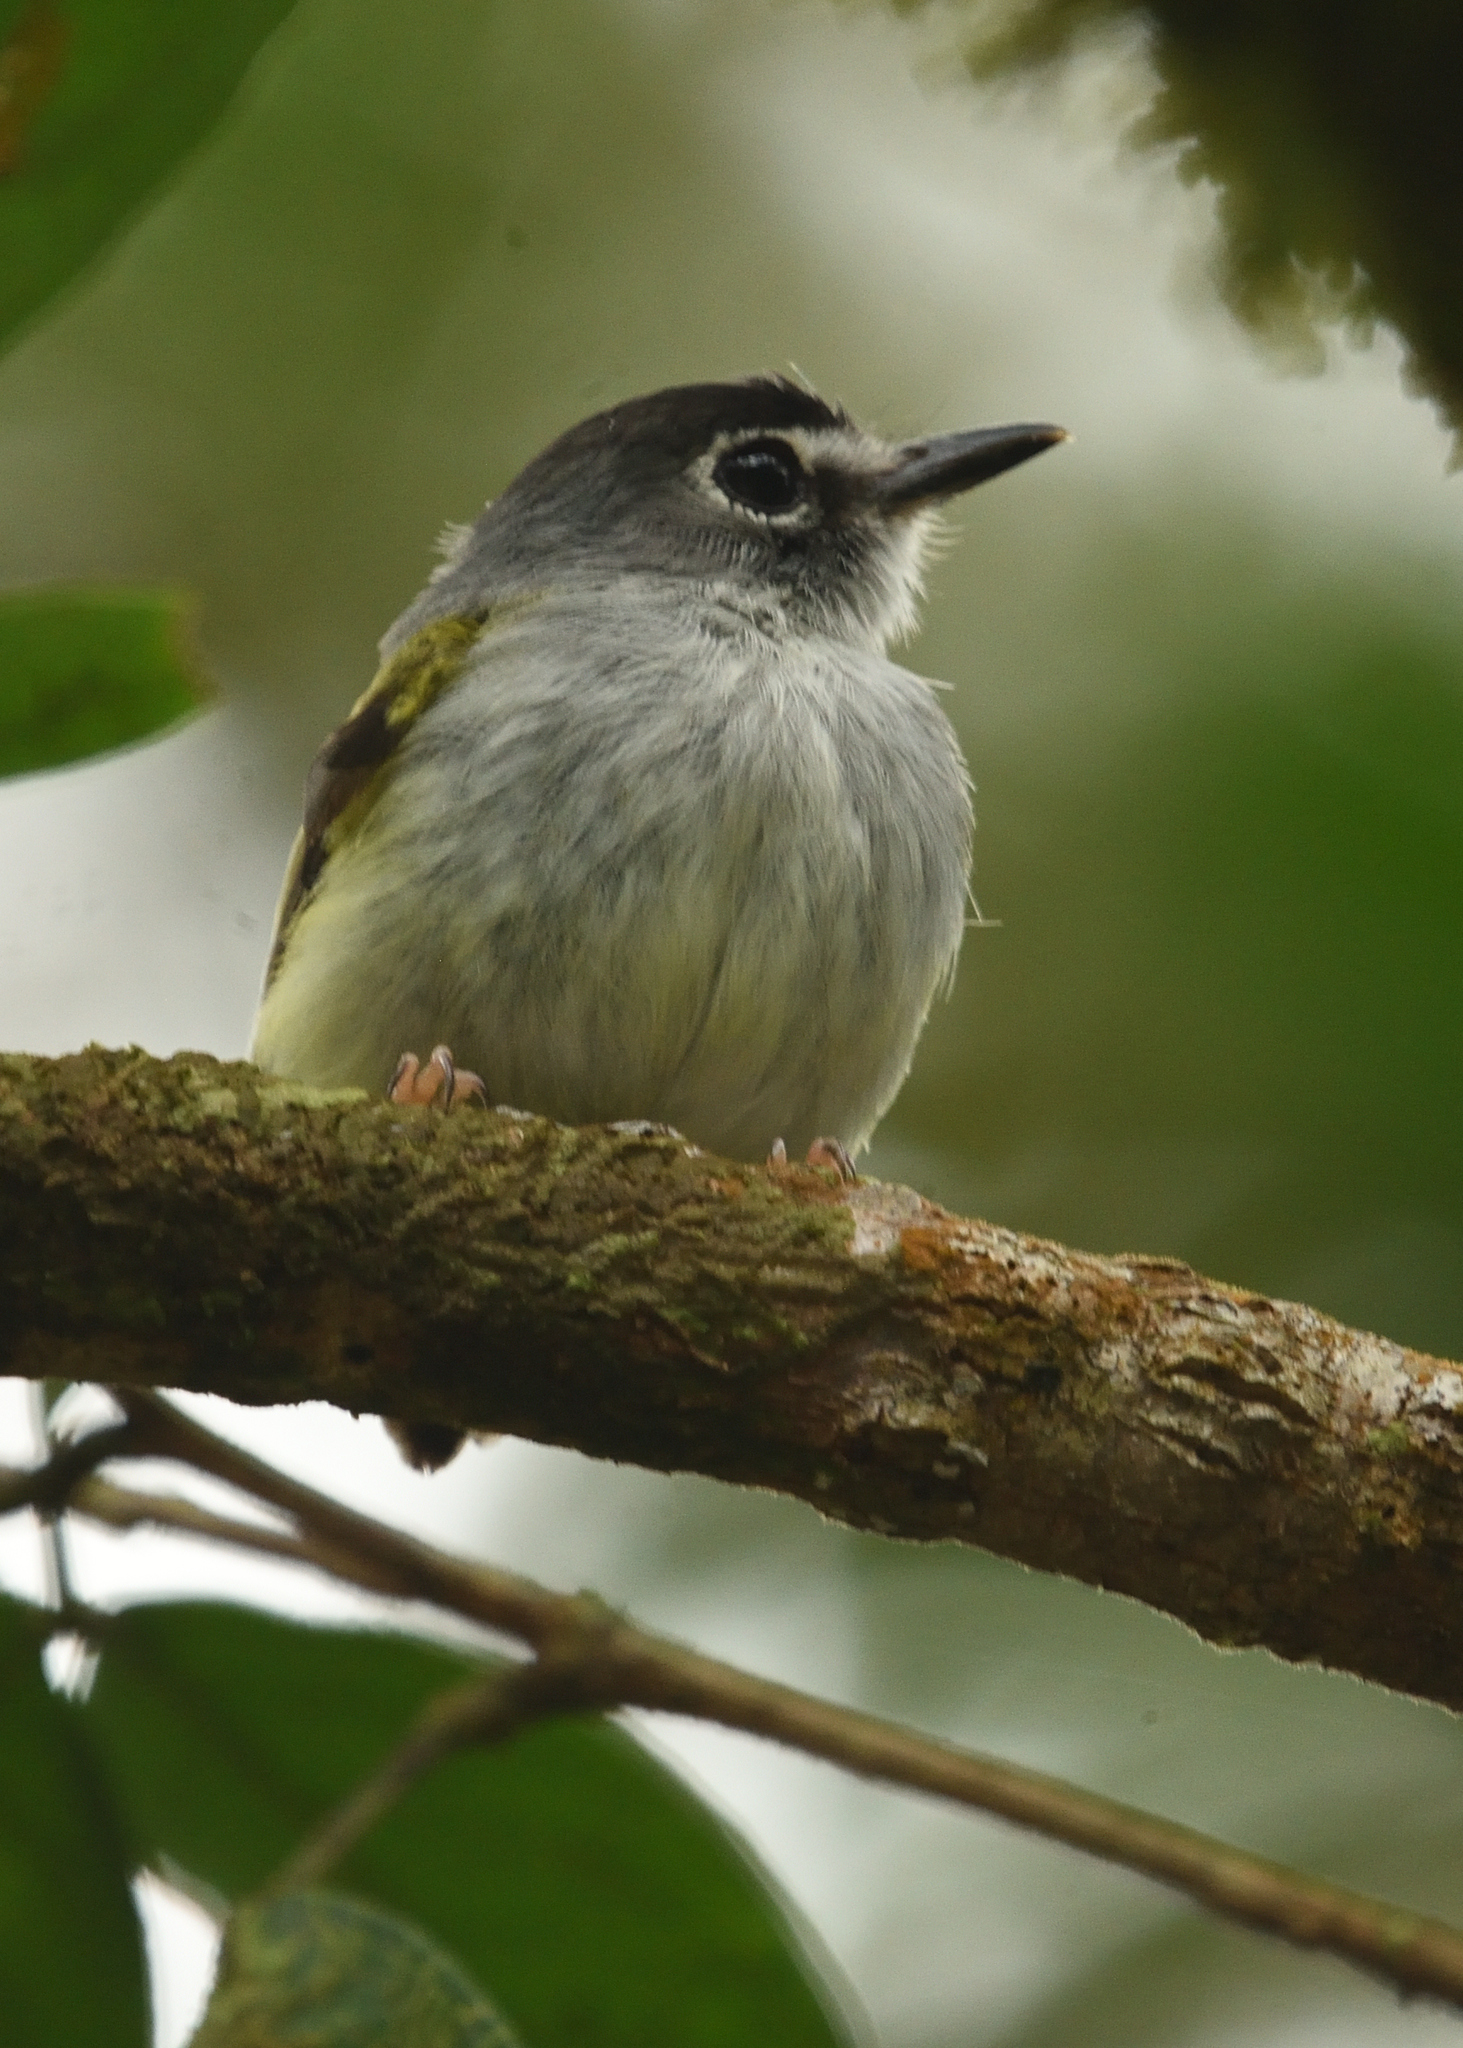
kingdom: Animalia
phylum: Chordata
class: Aves
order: Passeriformes
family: Tyrannidae
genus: Myiornis
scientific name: Myiornis atricapillus
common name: Black-capped pygmy-tyrant
